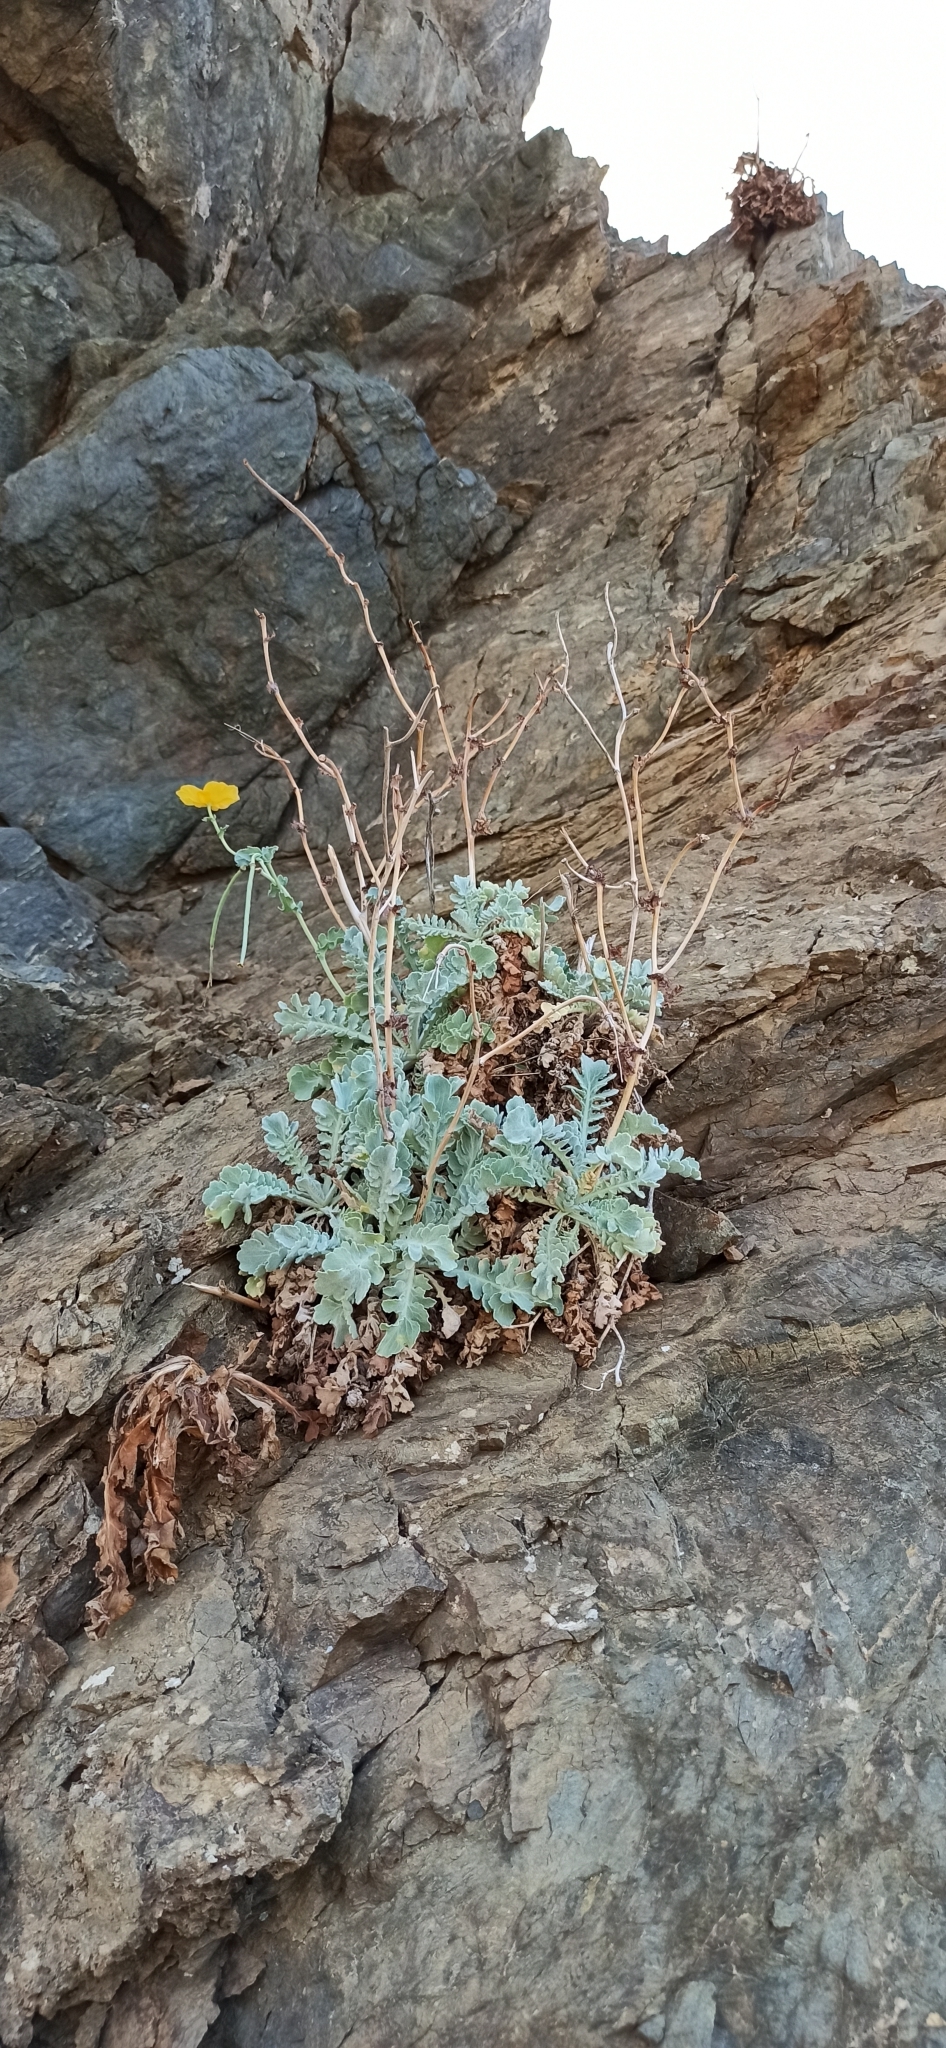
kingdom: Plantae
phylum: Tracheophyta
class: Magnoliopsida
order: Ranunculales
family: Papaveraceae
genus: Glaucium
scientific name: Glaucium flavum
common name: Yellow horned-poppy
